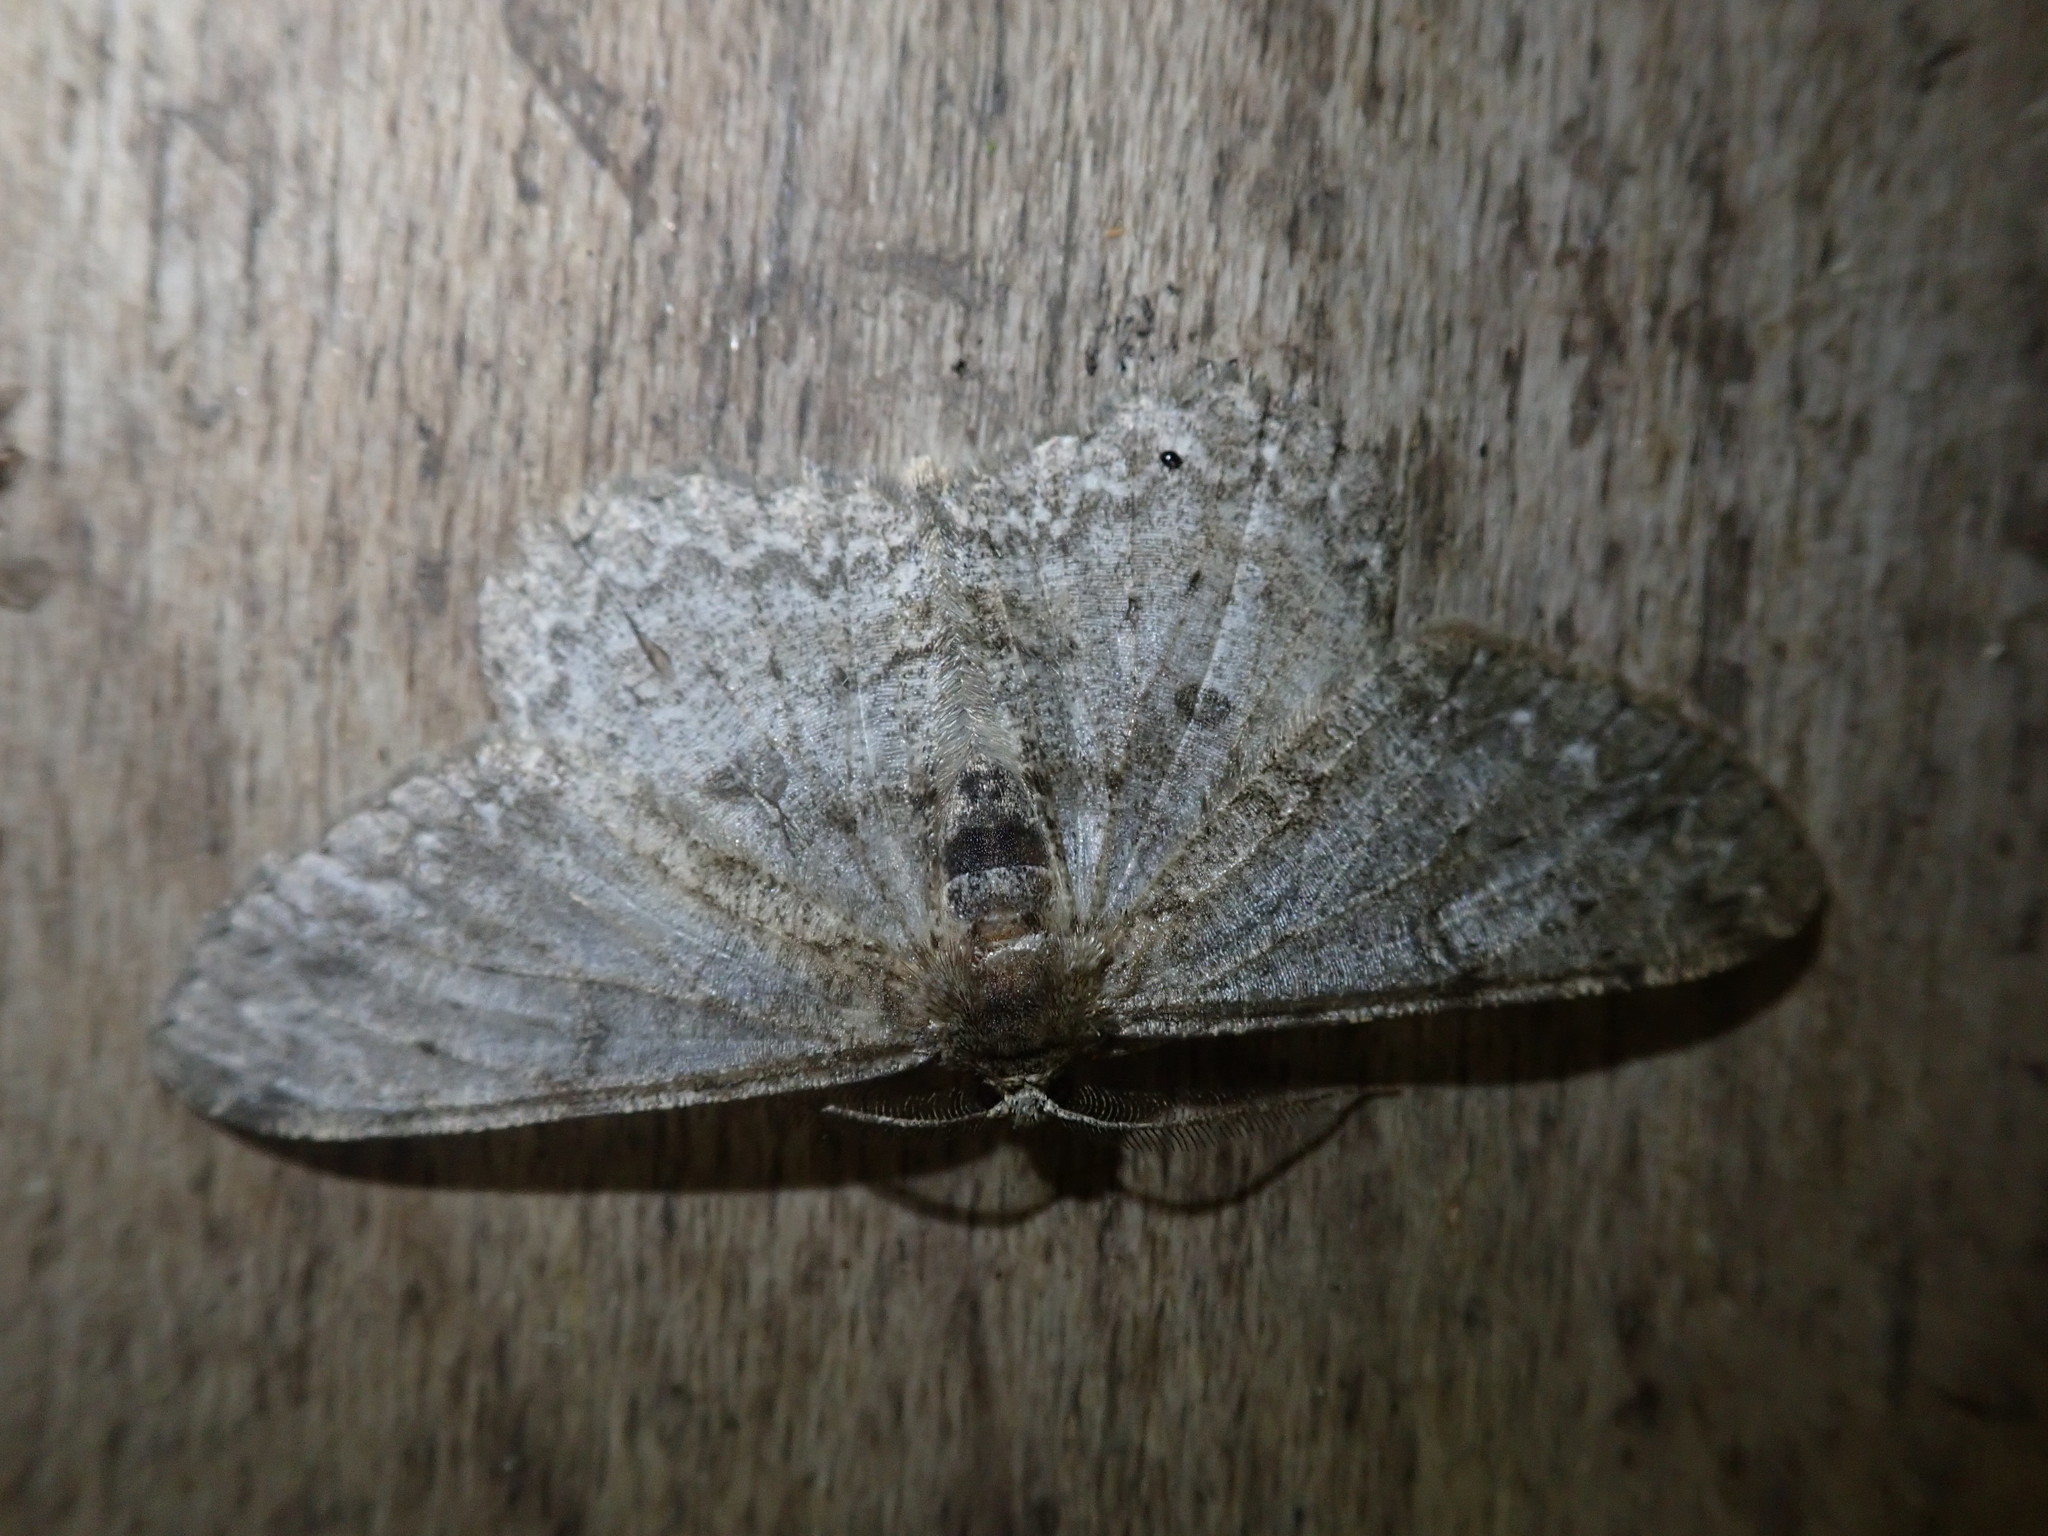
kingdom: Animalia
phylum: Arthropoda
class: Insecta
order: Lepidoptera
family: Geometridae
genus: Hypomecis
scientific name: Hypomecis punctinalis
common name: Pale oak beauty
